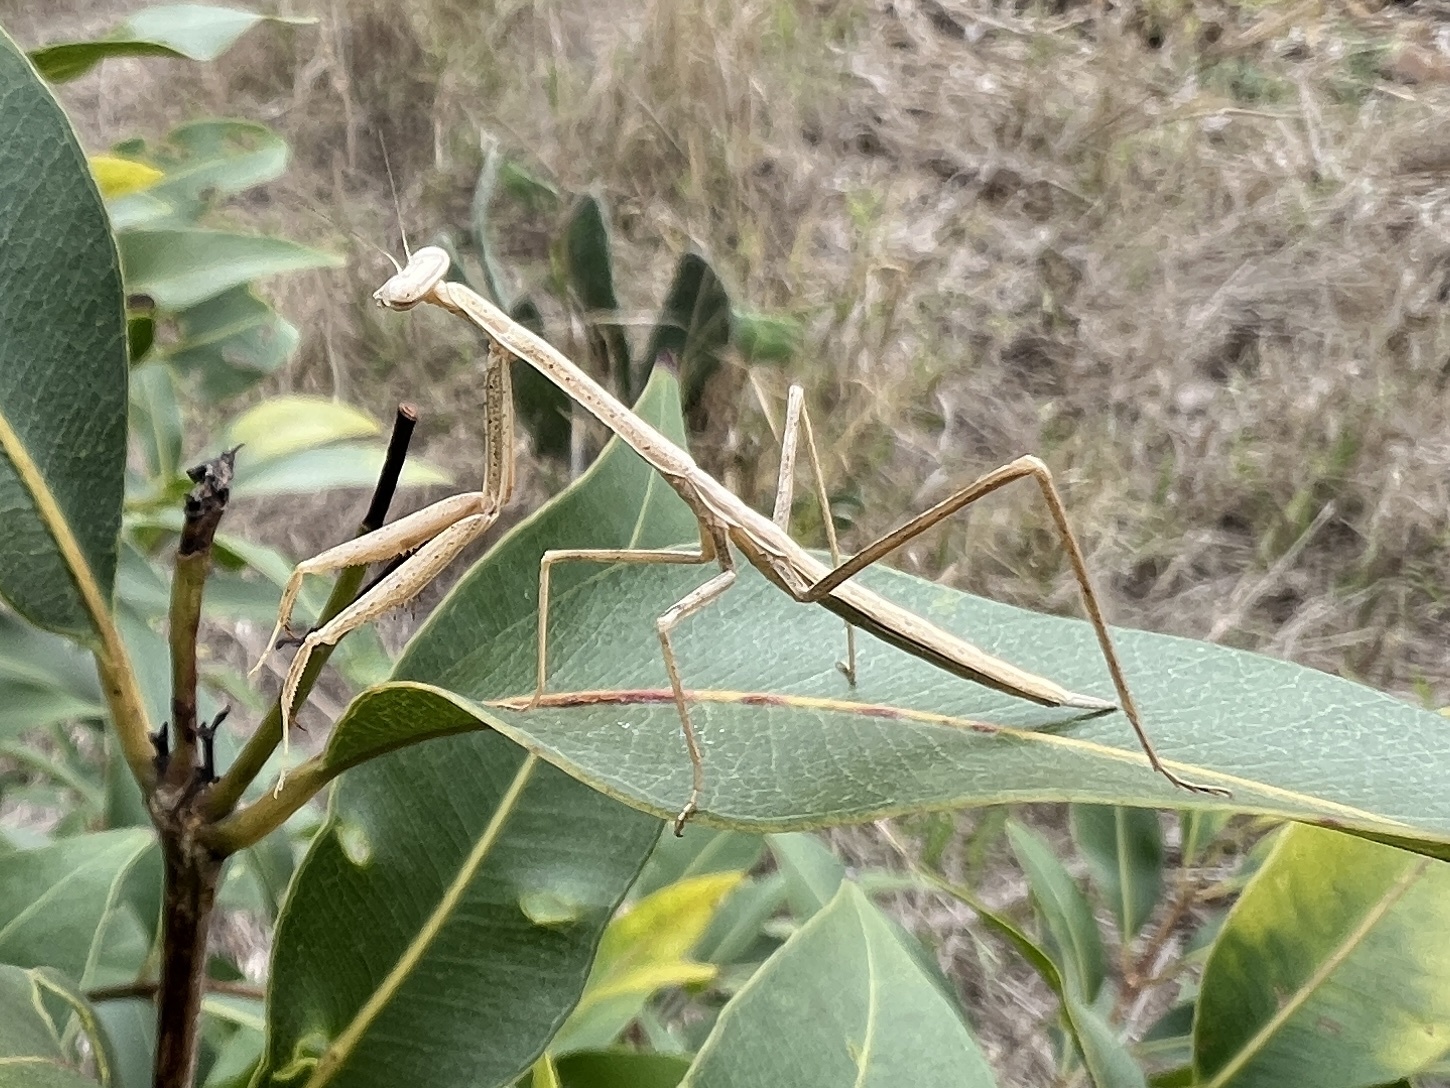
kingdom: Animalia
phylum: Arthropoda
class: Insecta
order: Mantodea
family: Mantidae
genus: Phasmomantis
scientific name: Phasmomantis sumichrasti
